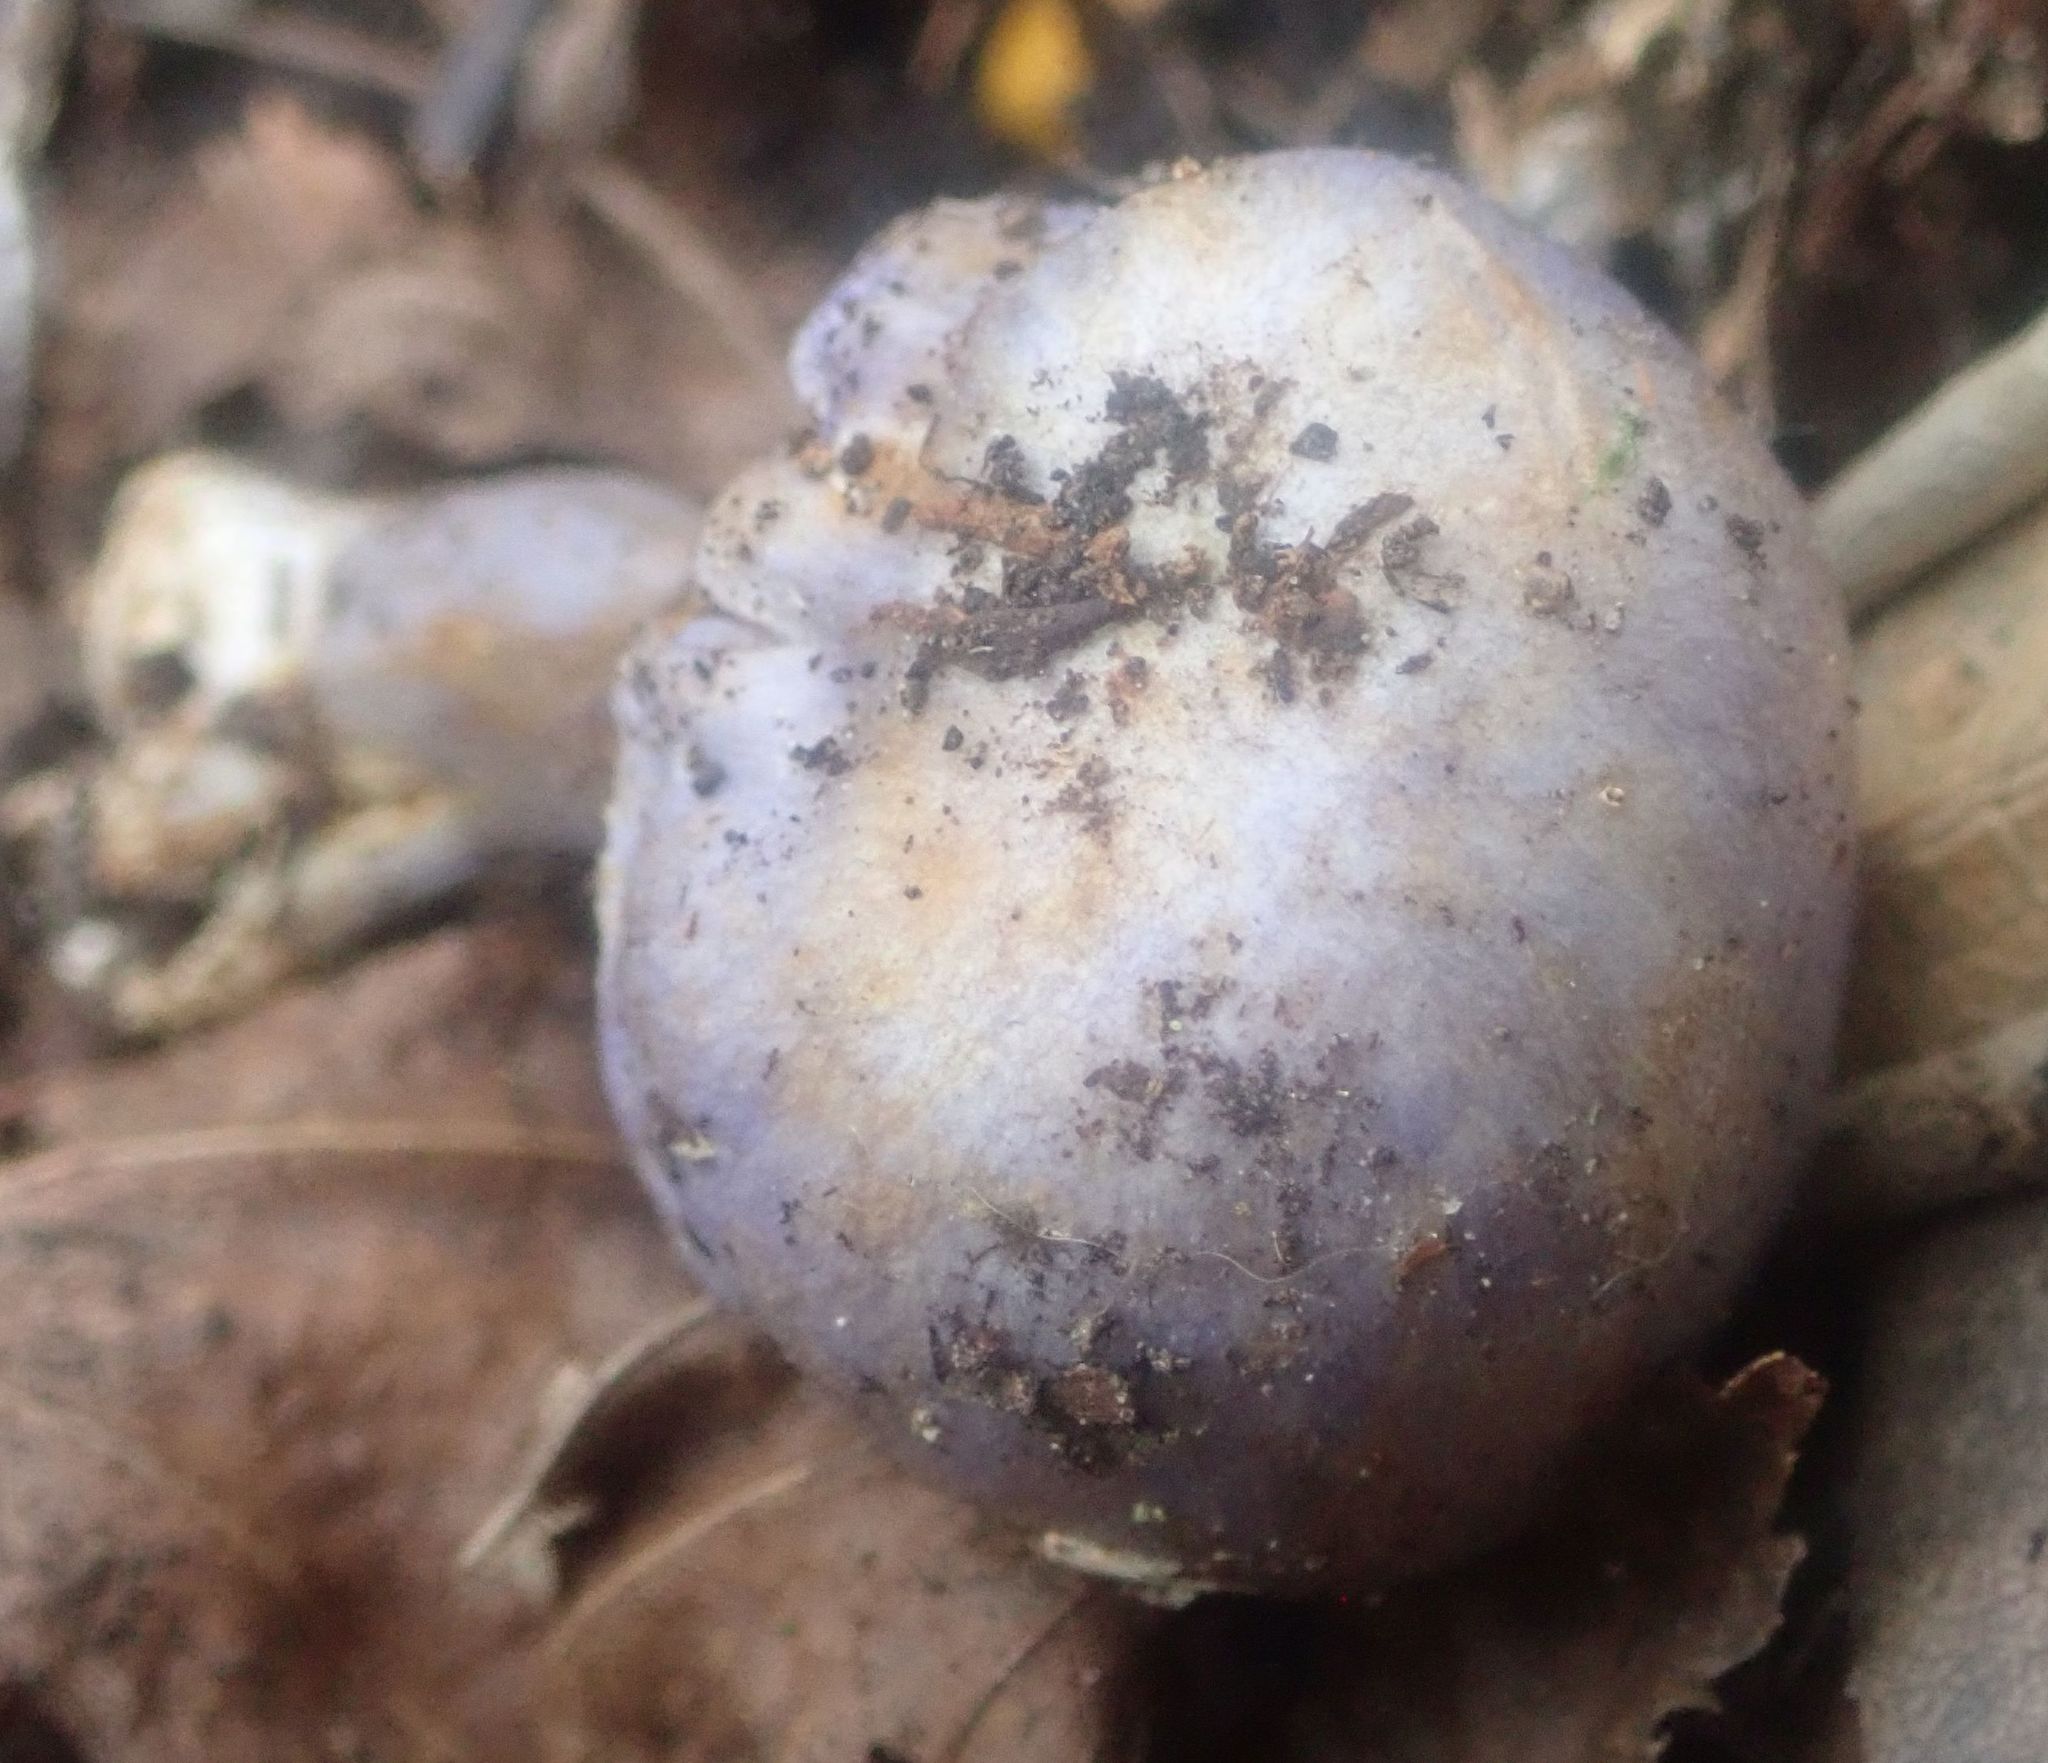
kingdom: Fungi
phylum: Basidiomycota
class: Agaricomycetes
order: Agaricales
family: Cortinariaceae
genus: Thaxterogaster
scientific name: Thaxterogaster austrovaginatus
